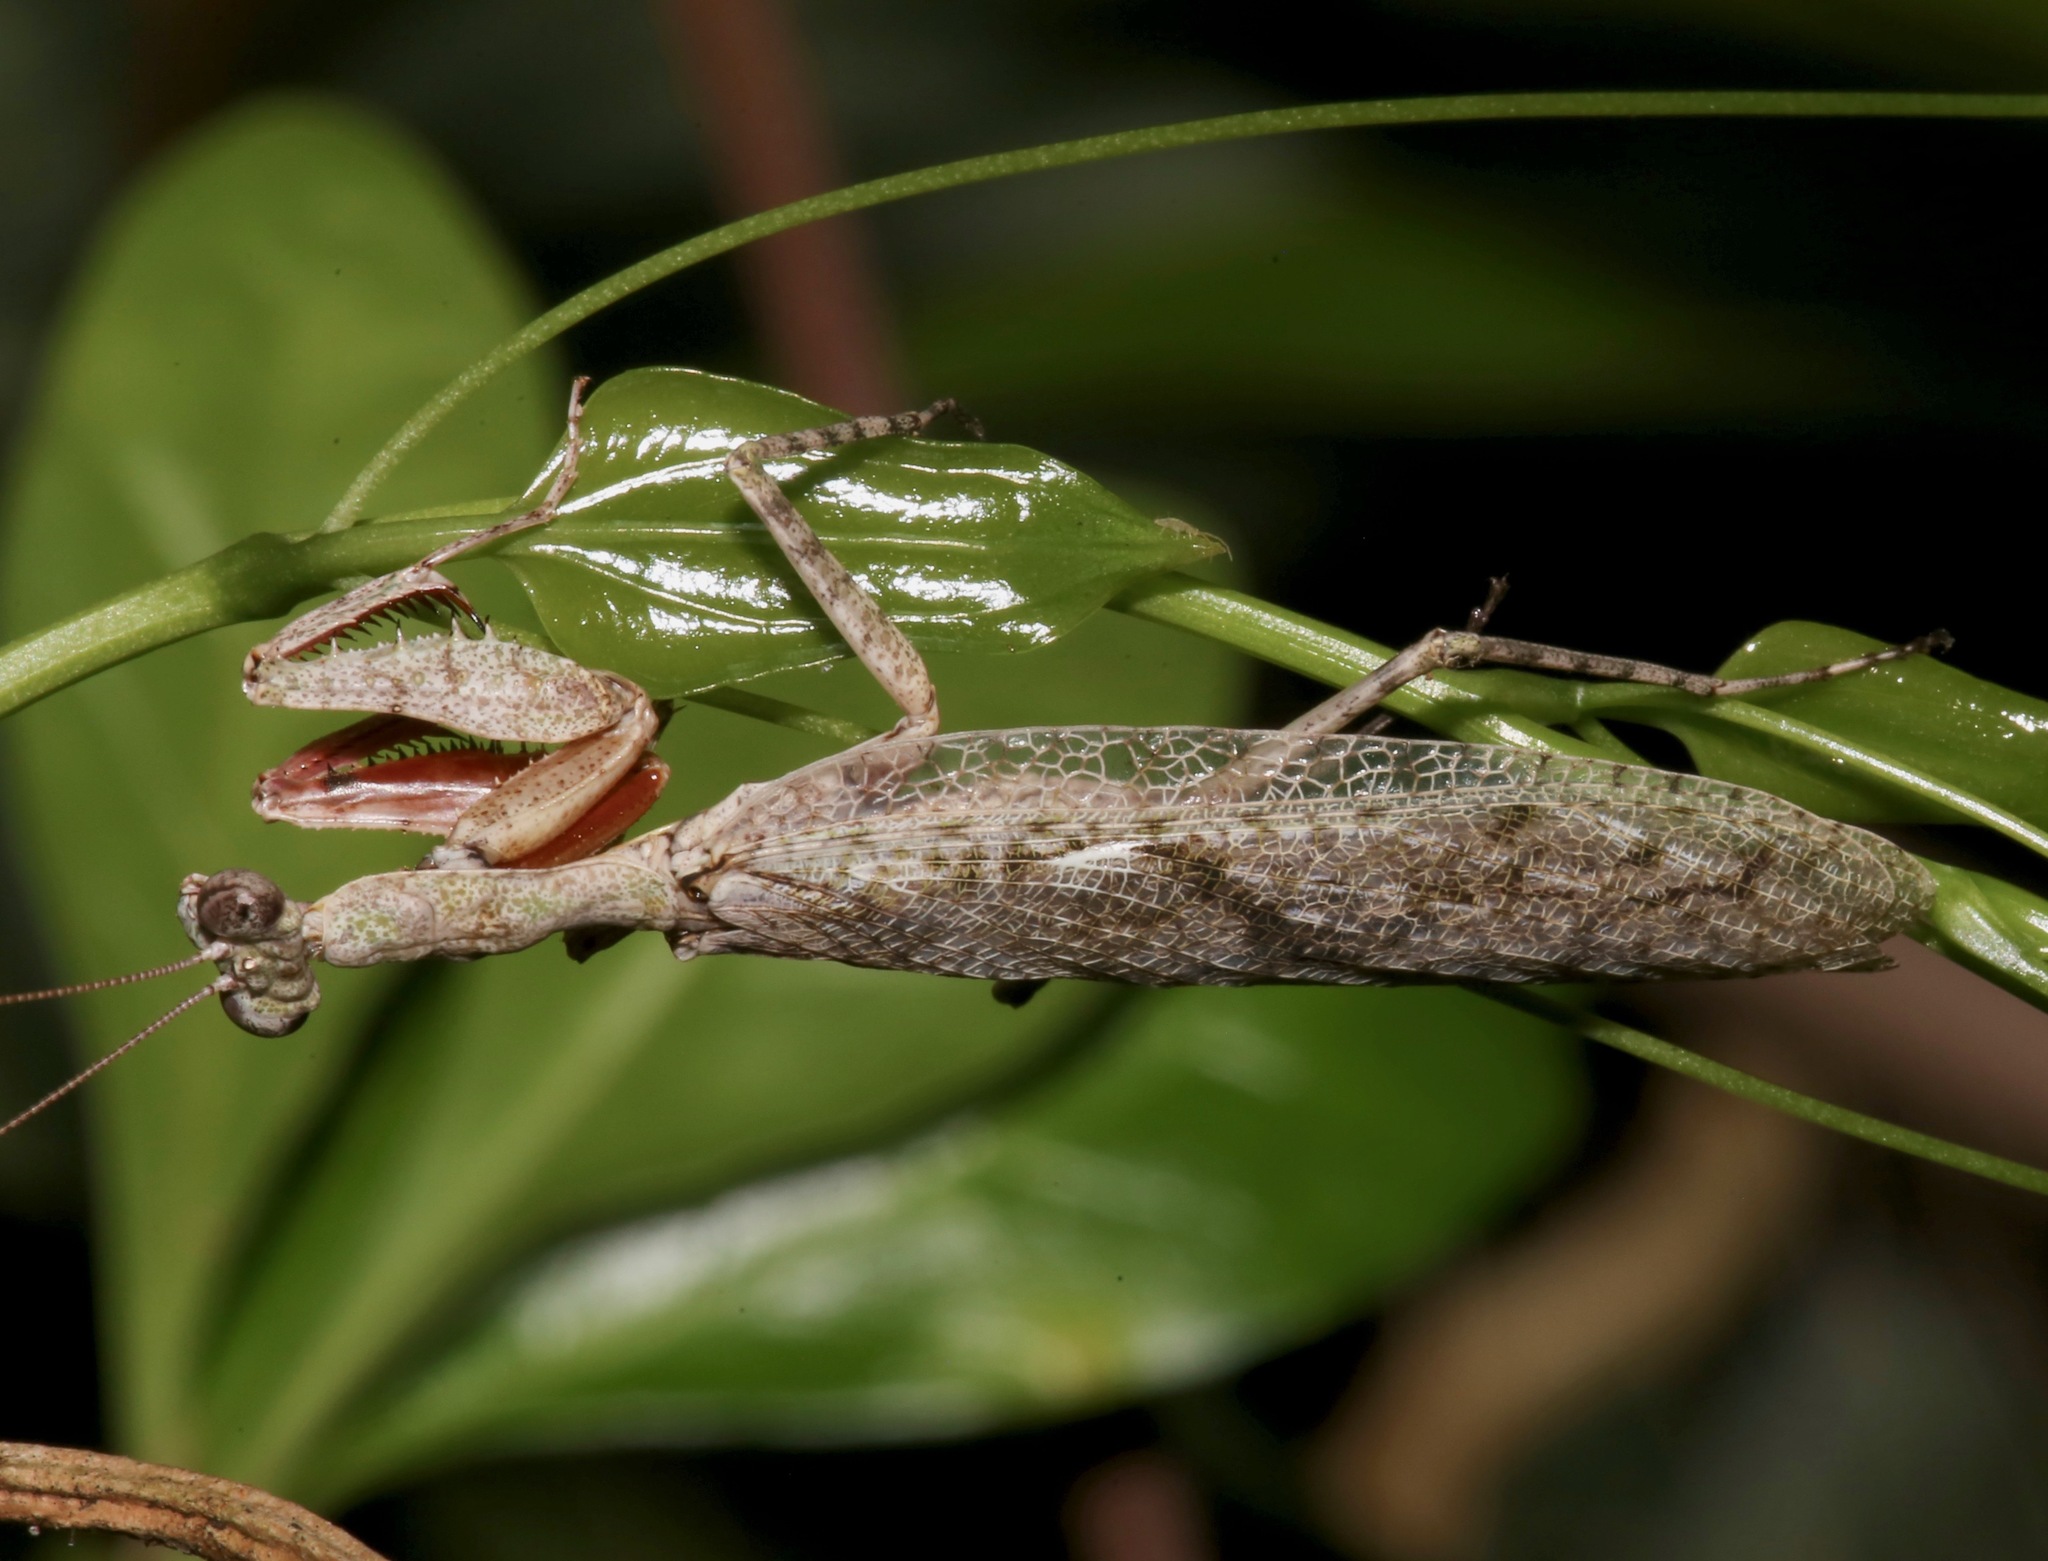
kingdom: Animalia
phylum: Arthropoda
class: Insecta
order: Mantodea
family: Epaphroditidae
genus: Gonatista
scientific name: Gonatista grisea
